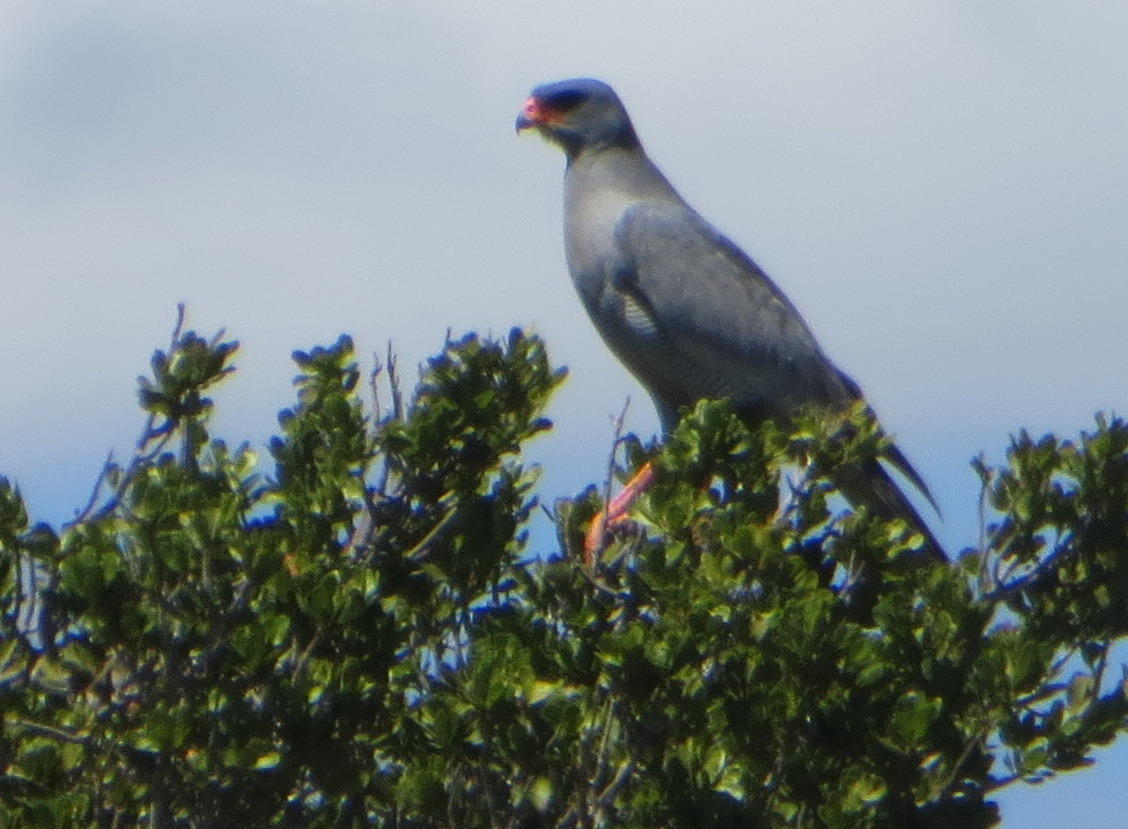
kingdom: Animalia
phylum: Chordata
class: Aves
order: Accipitriformes
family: Accipitridae
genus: Melierax
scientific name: Melierax canorus
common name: Pale chanting-goshawk
